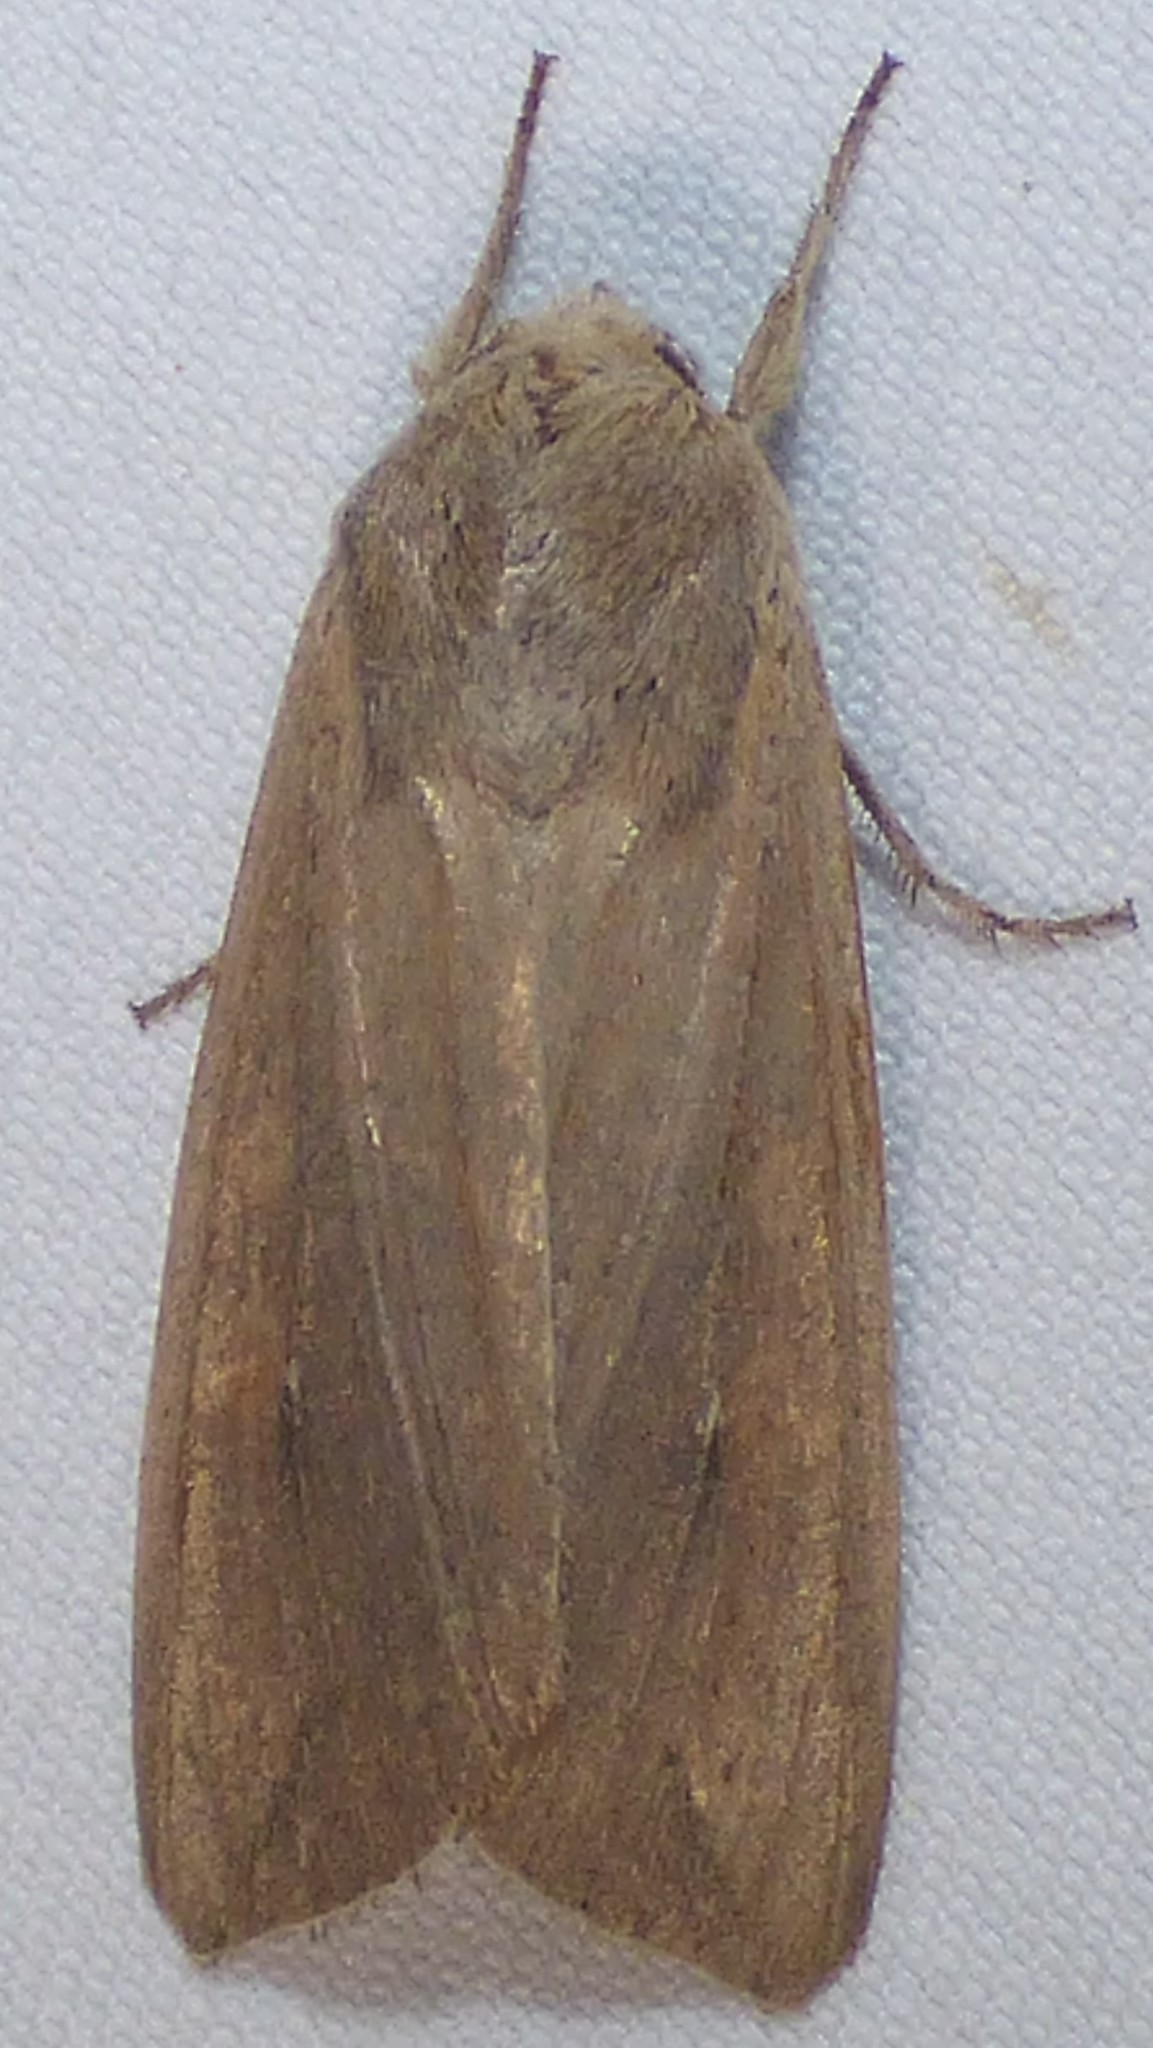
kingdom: Animalia
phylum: Arthropoda
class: Insecta
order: Lepidoptera
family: Noctuidae
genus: Mythimna
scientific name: Mythimna unipuncta
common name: White-speck
